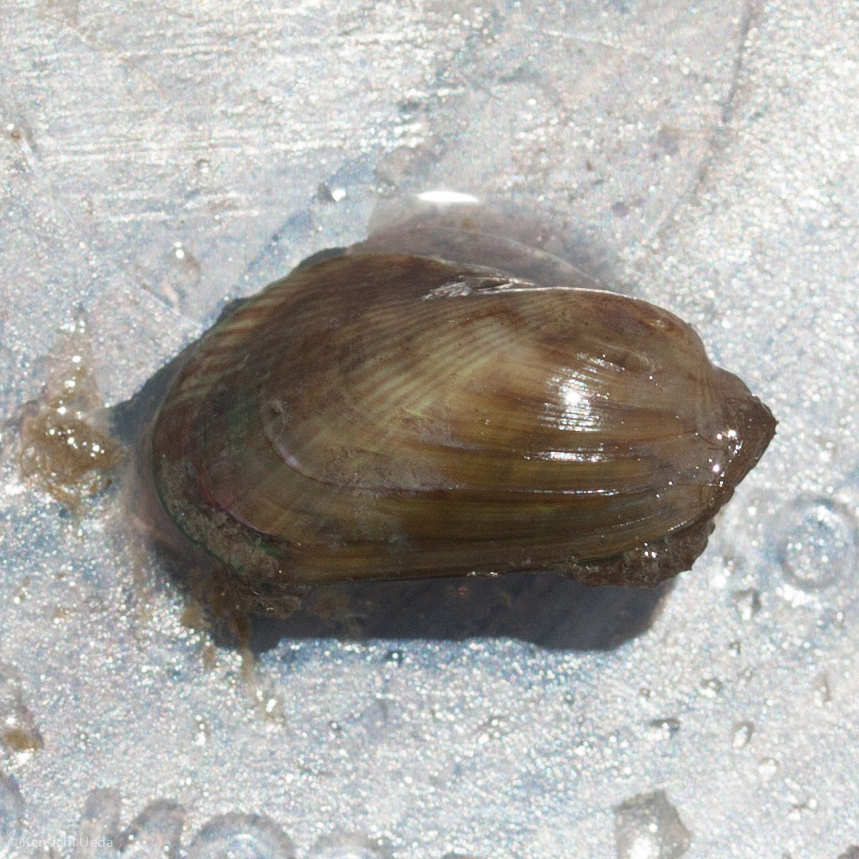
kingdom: Animalia
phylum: Mollusca
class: Bivalvia
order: Mytilida
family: Mytilidae
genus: Arcuatula
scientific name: Arcuatula senhousia
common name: Asian mussel
